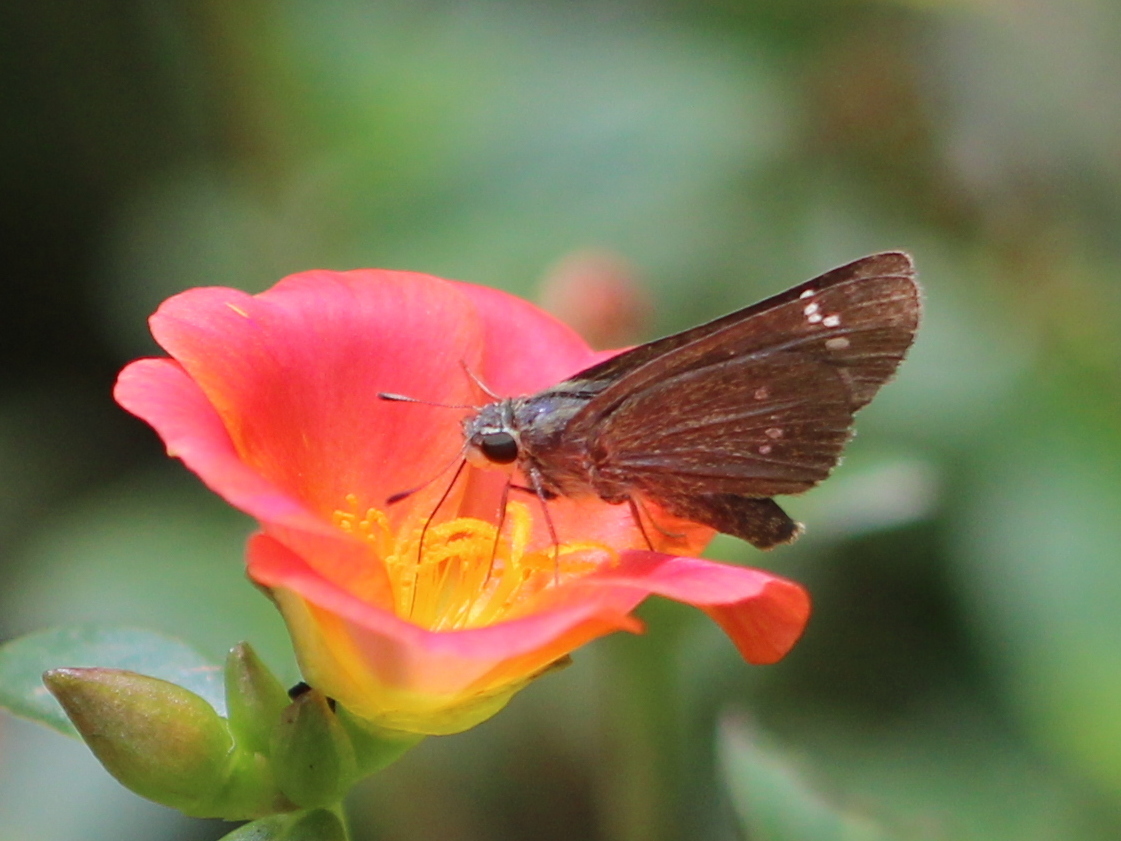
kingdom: Animalia
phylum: Arthropoda
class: Insecta
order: Lepidoptera
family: Hesperiidae
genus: Borbo
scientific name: Borbo cinnara
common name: Formosan swift
